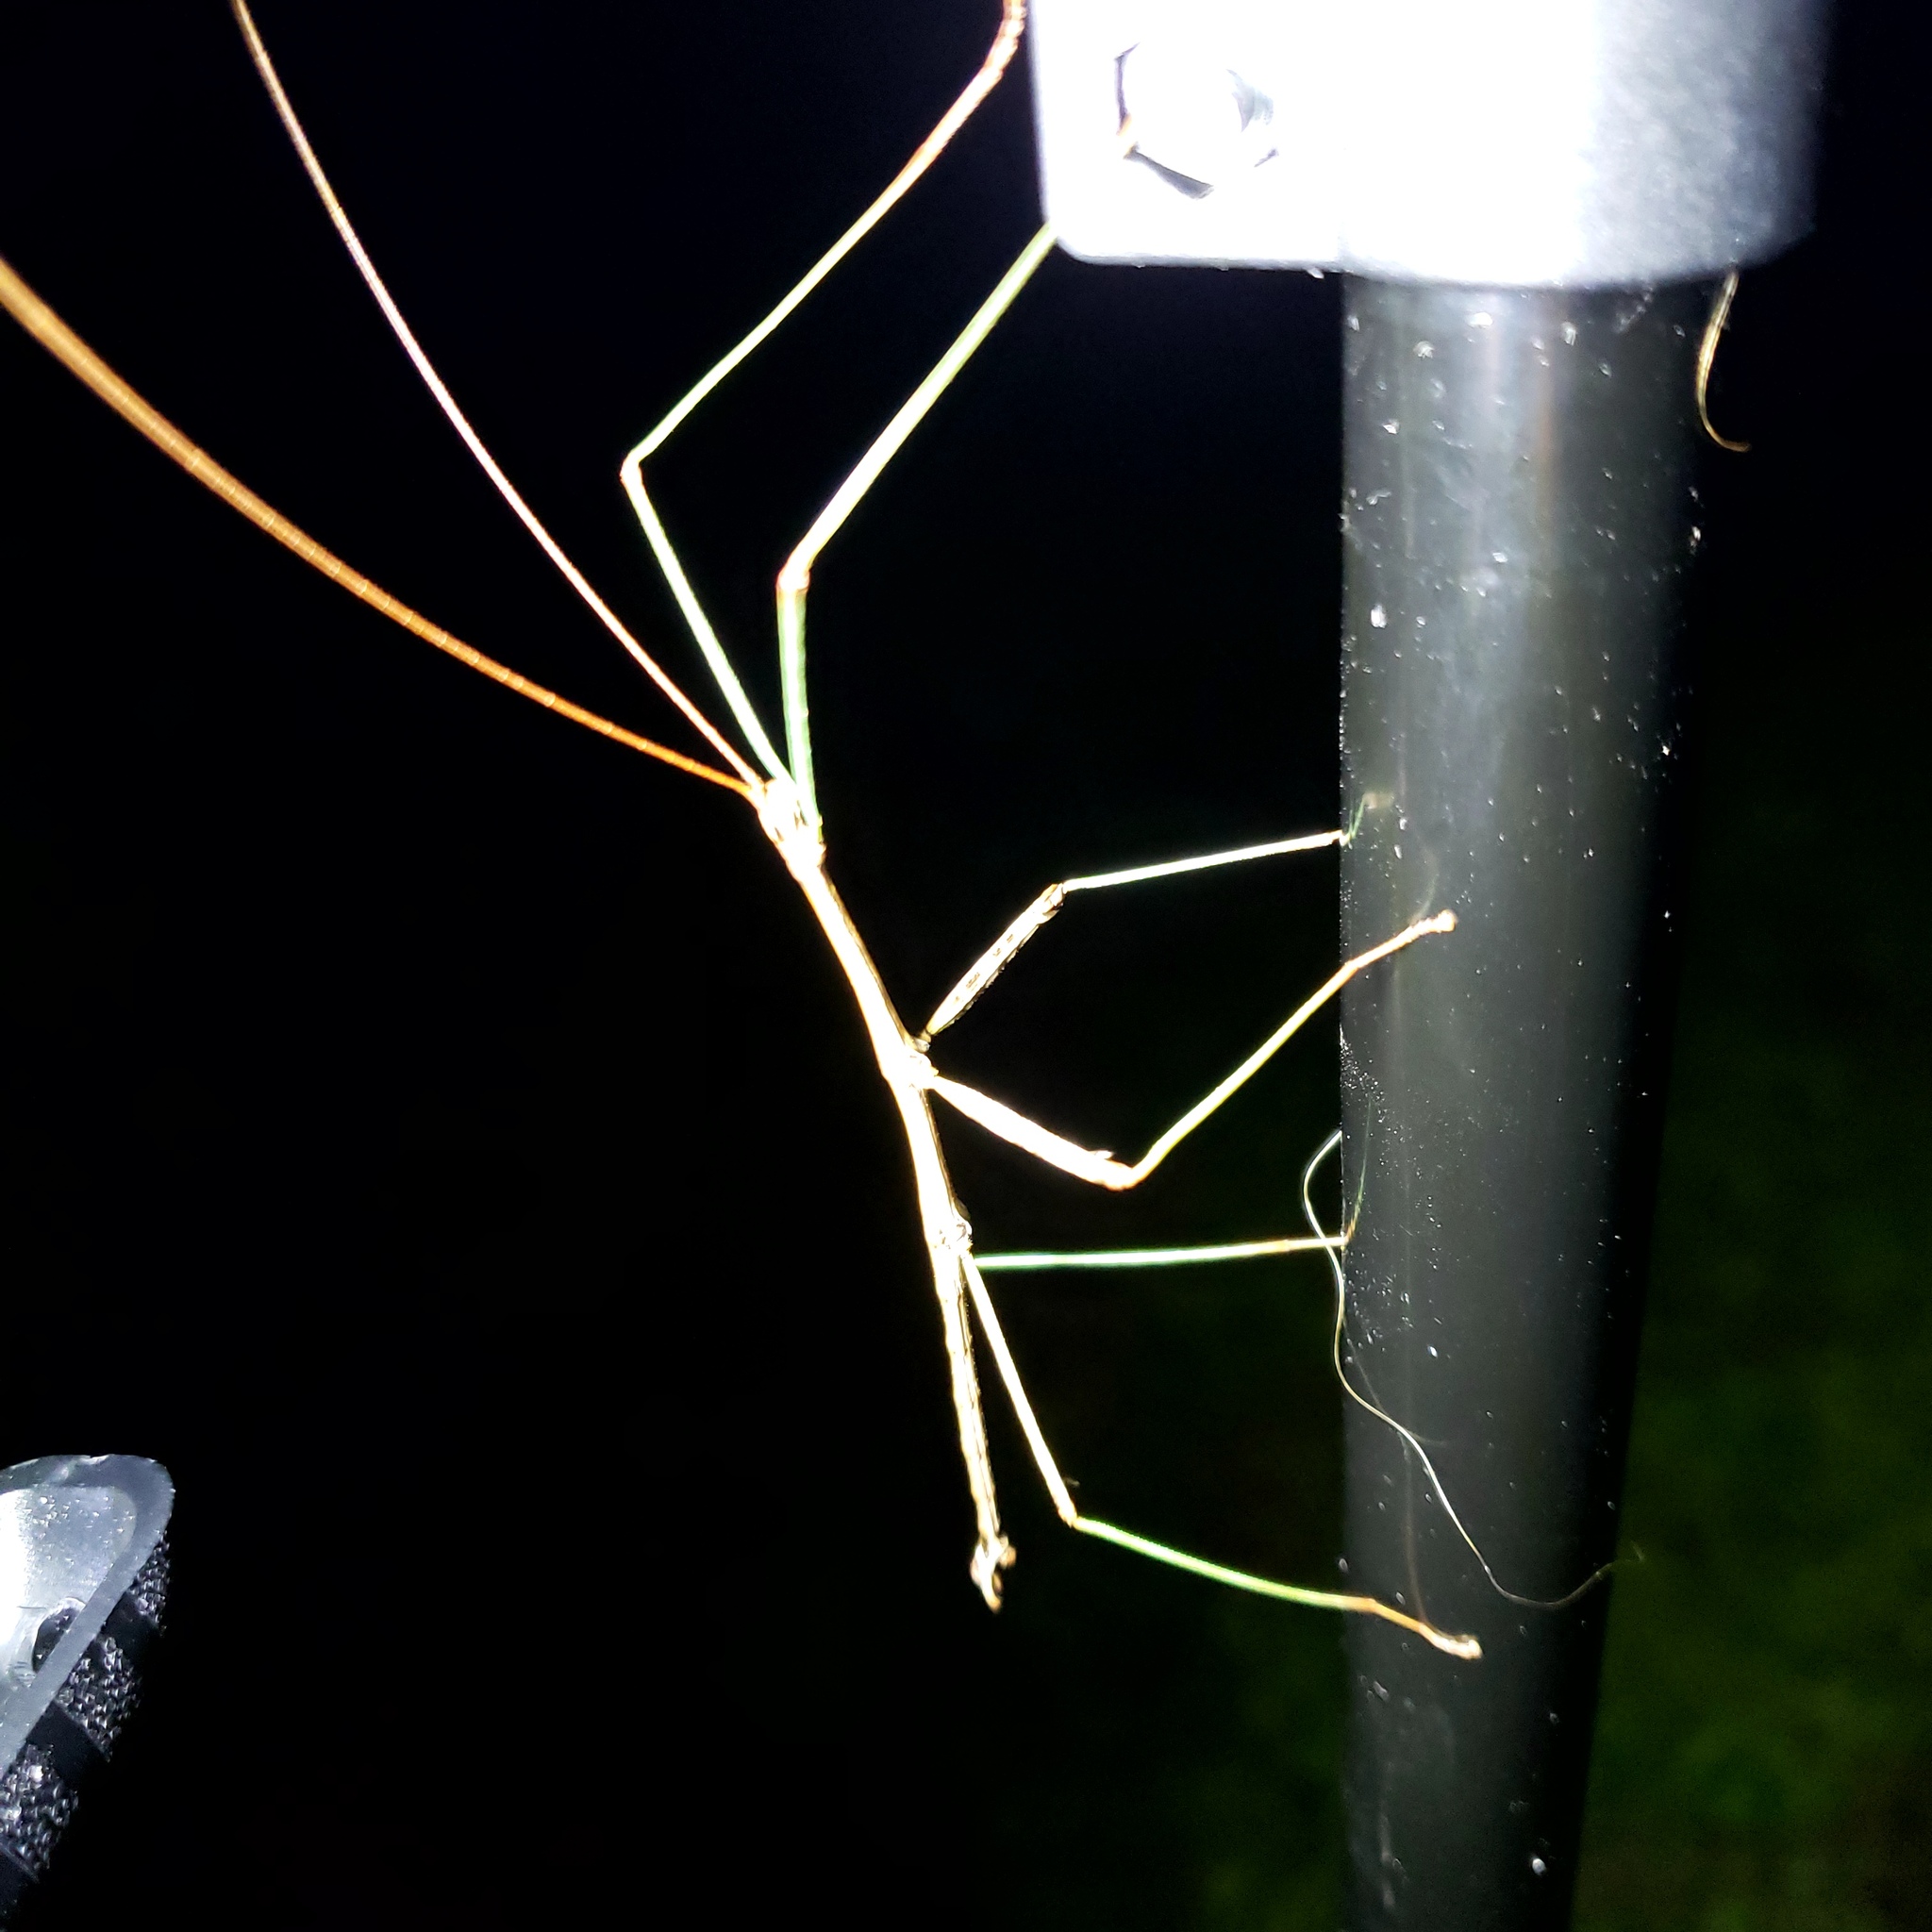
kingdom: Animalia
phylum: Arthropoda
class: Insecta
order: Phasmida
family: Diapheromeridae
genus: Diapheromera
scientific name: Diapheromera femorata
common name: Common american walkingstick
